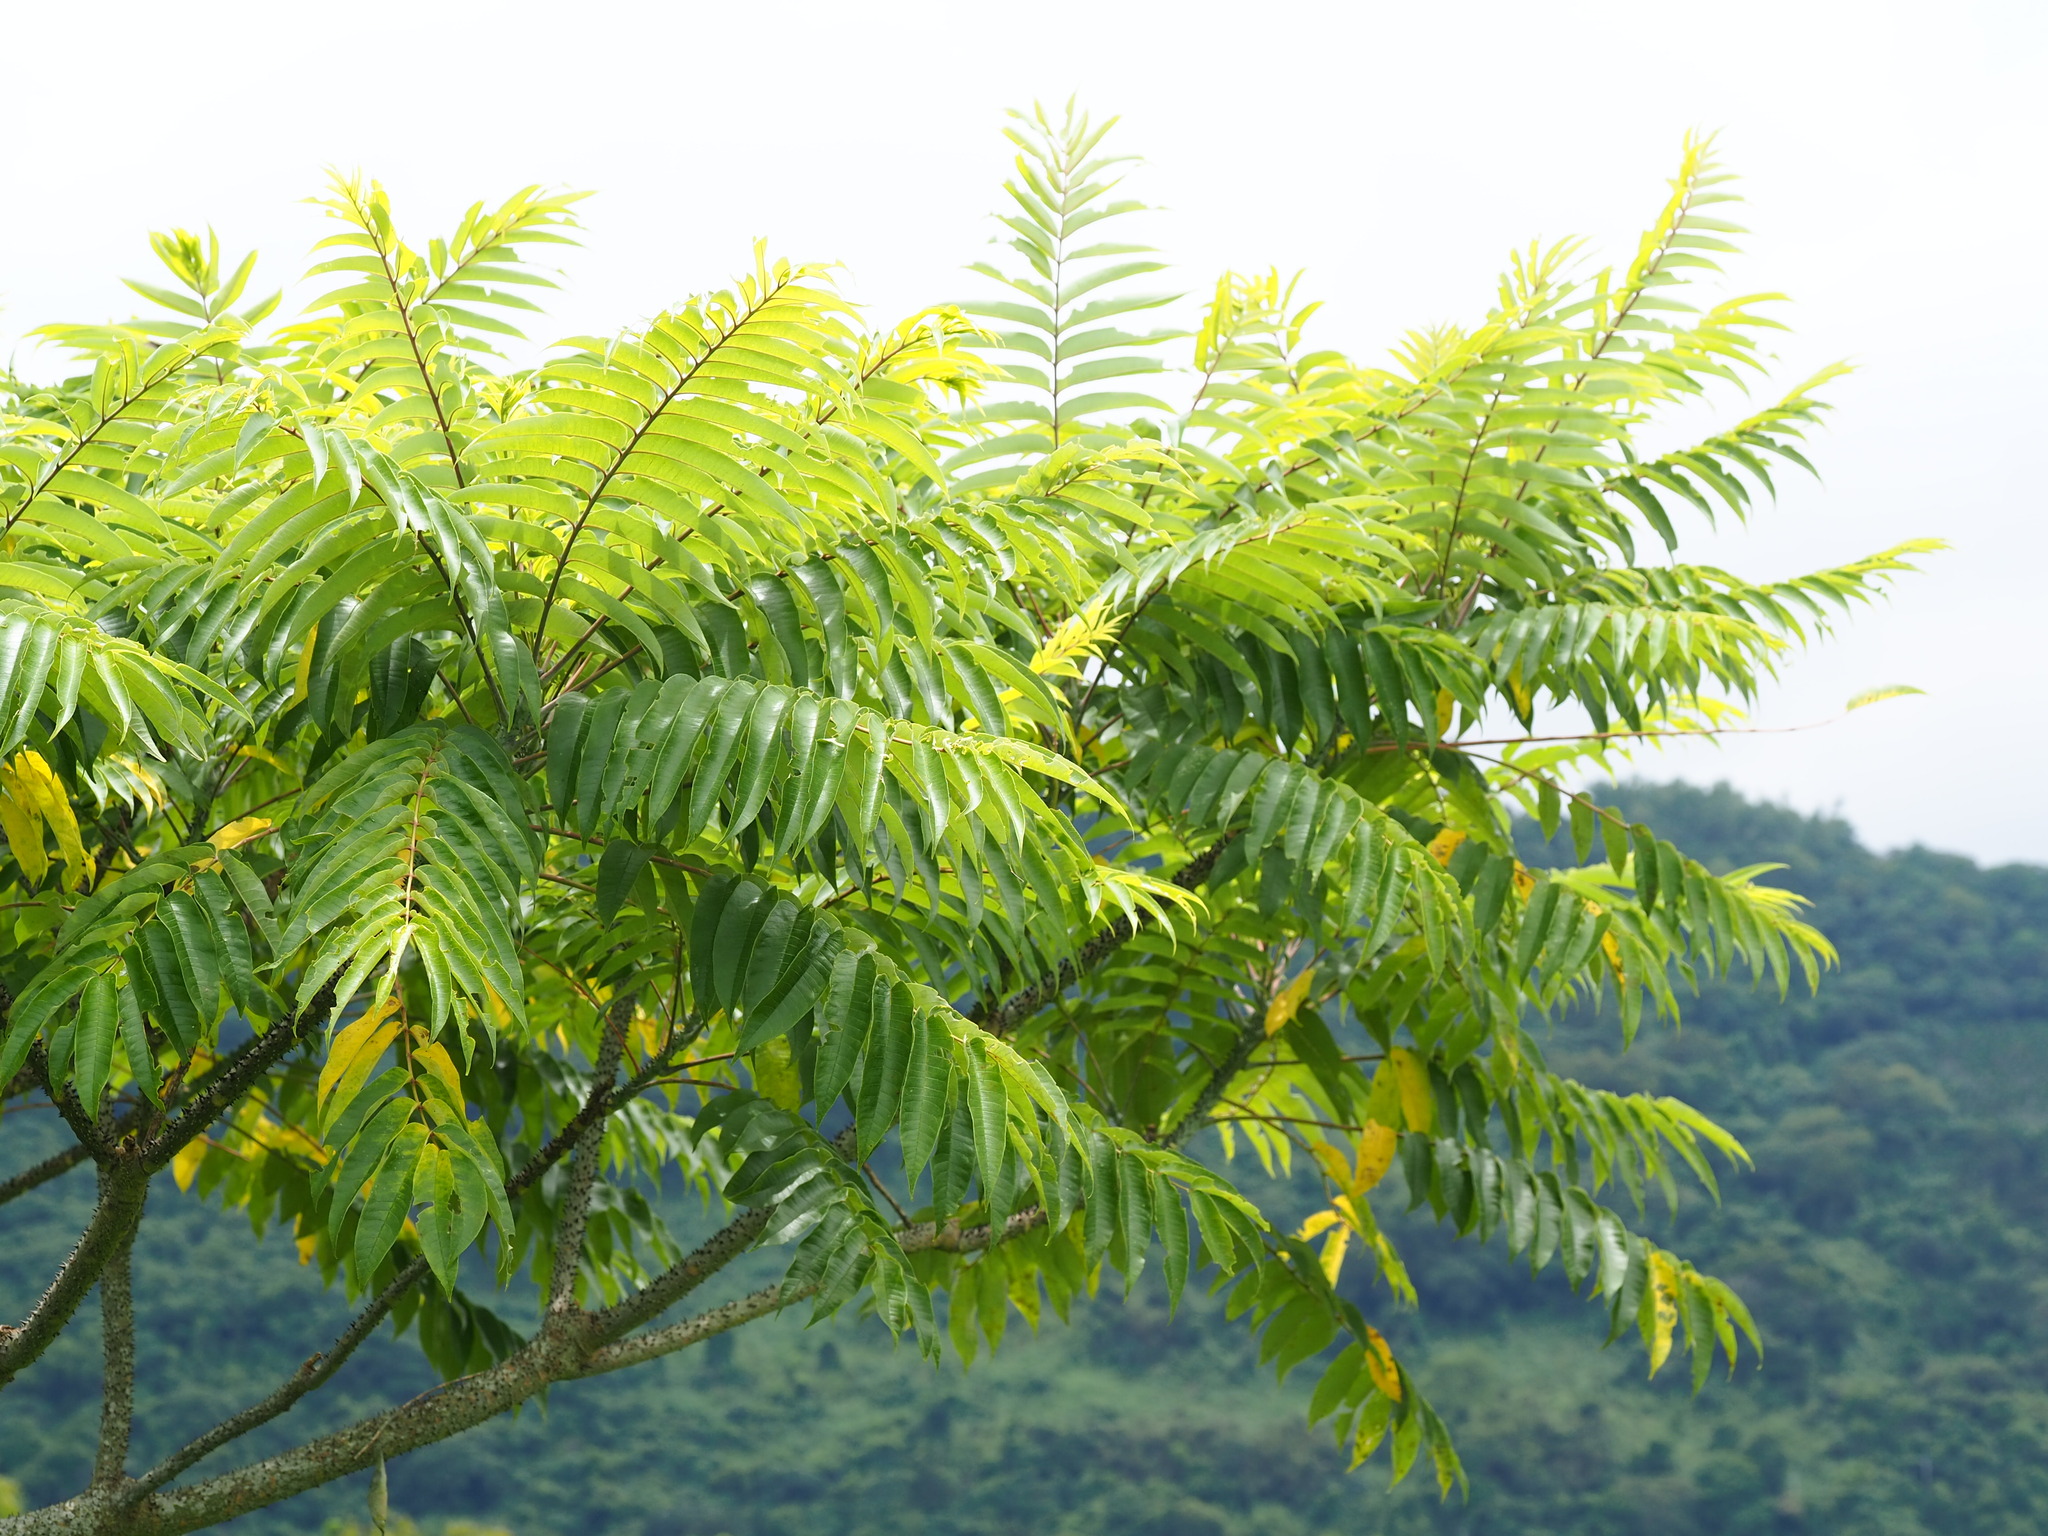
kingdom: Plantae
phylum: Tracheophyta
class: Magnoliopsida
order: Sapindales
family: Rutaceae
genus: Zanthoxylum
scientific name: Zanthoxylum ailanthoides
